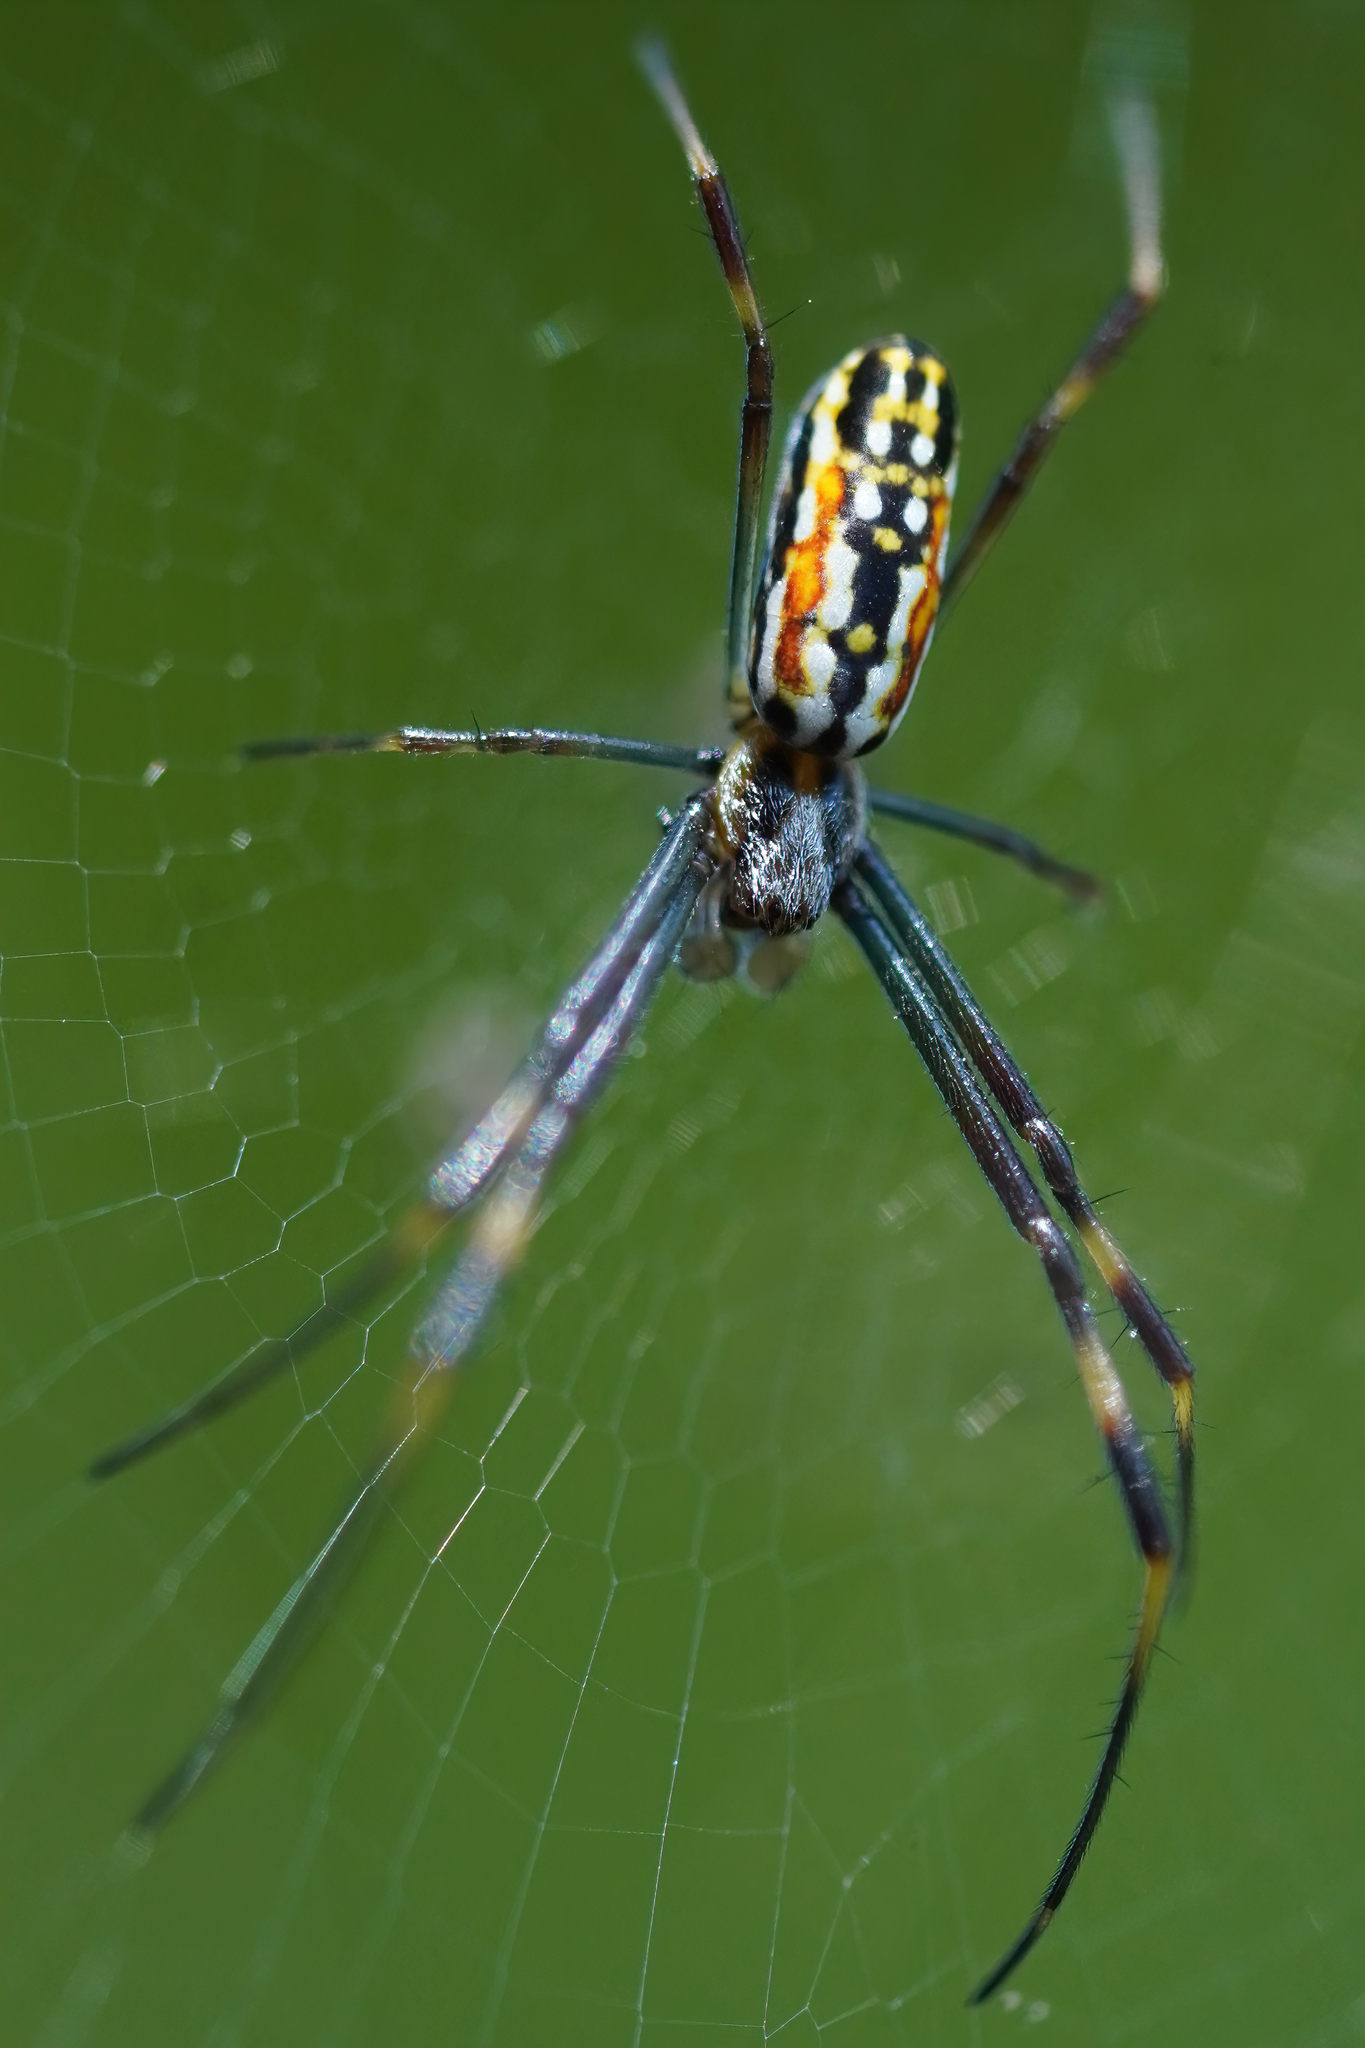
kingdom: Animalia
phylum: Arthropoda
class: Arachnida
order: Araneae
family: Araneidae
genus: Trichonephila
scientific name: Trichonephila clavipes
